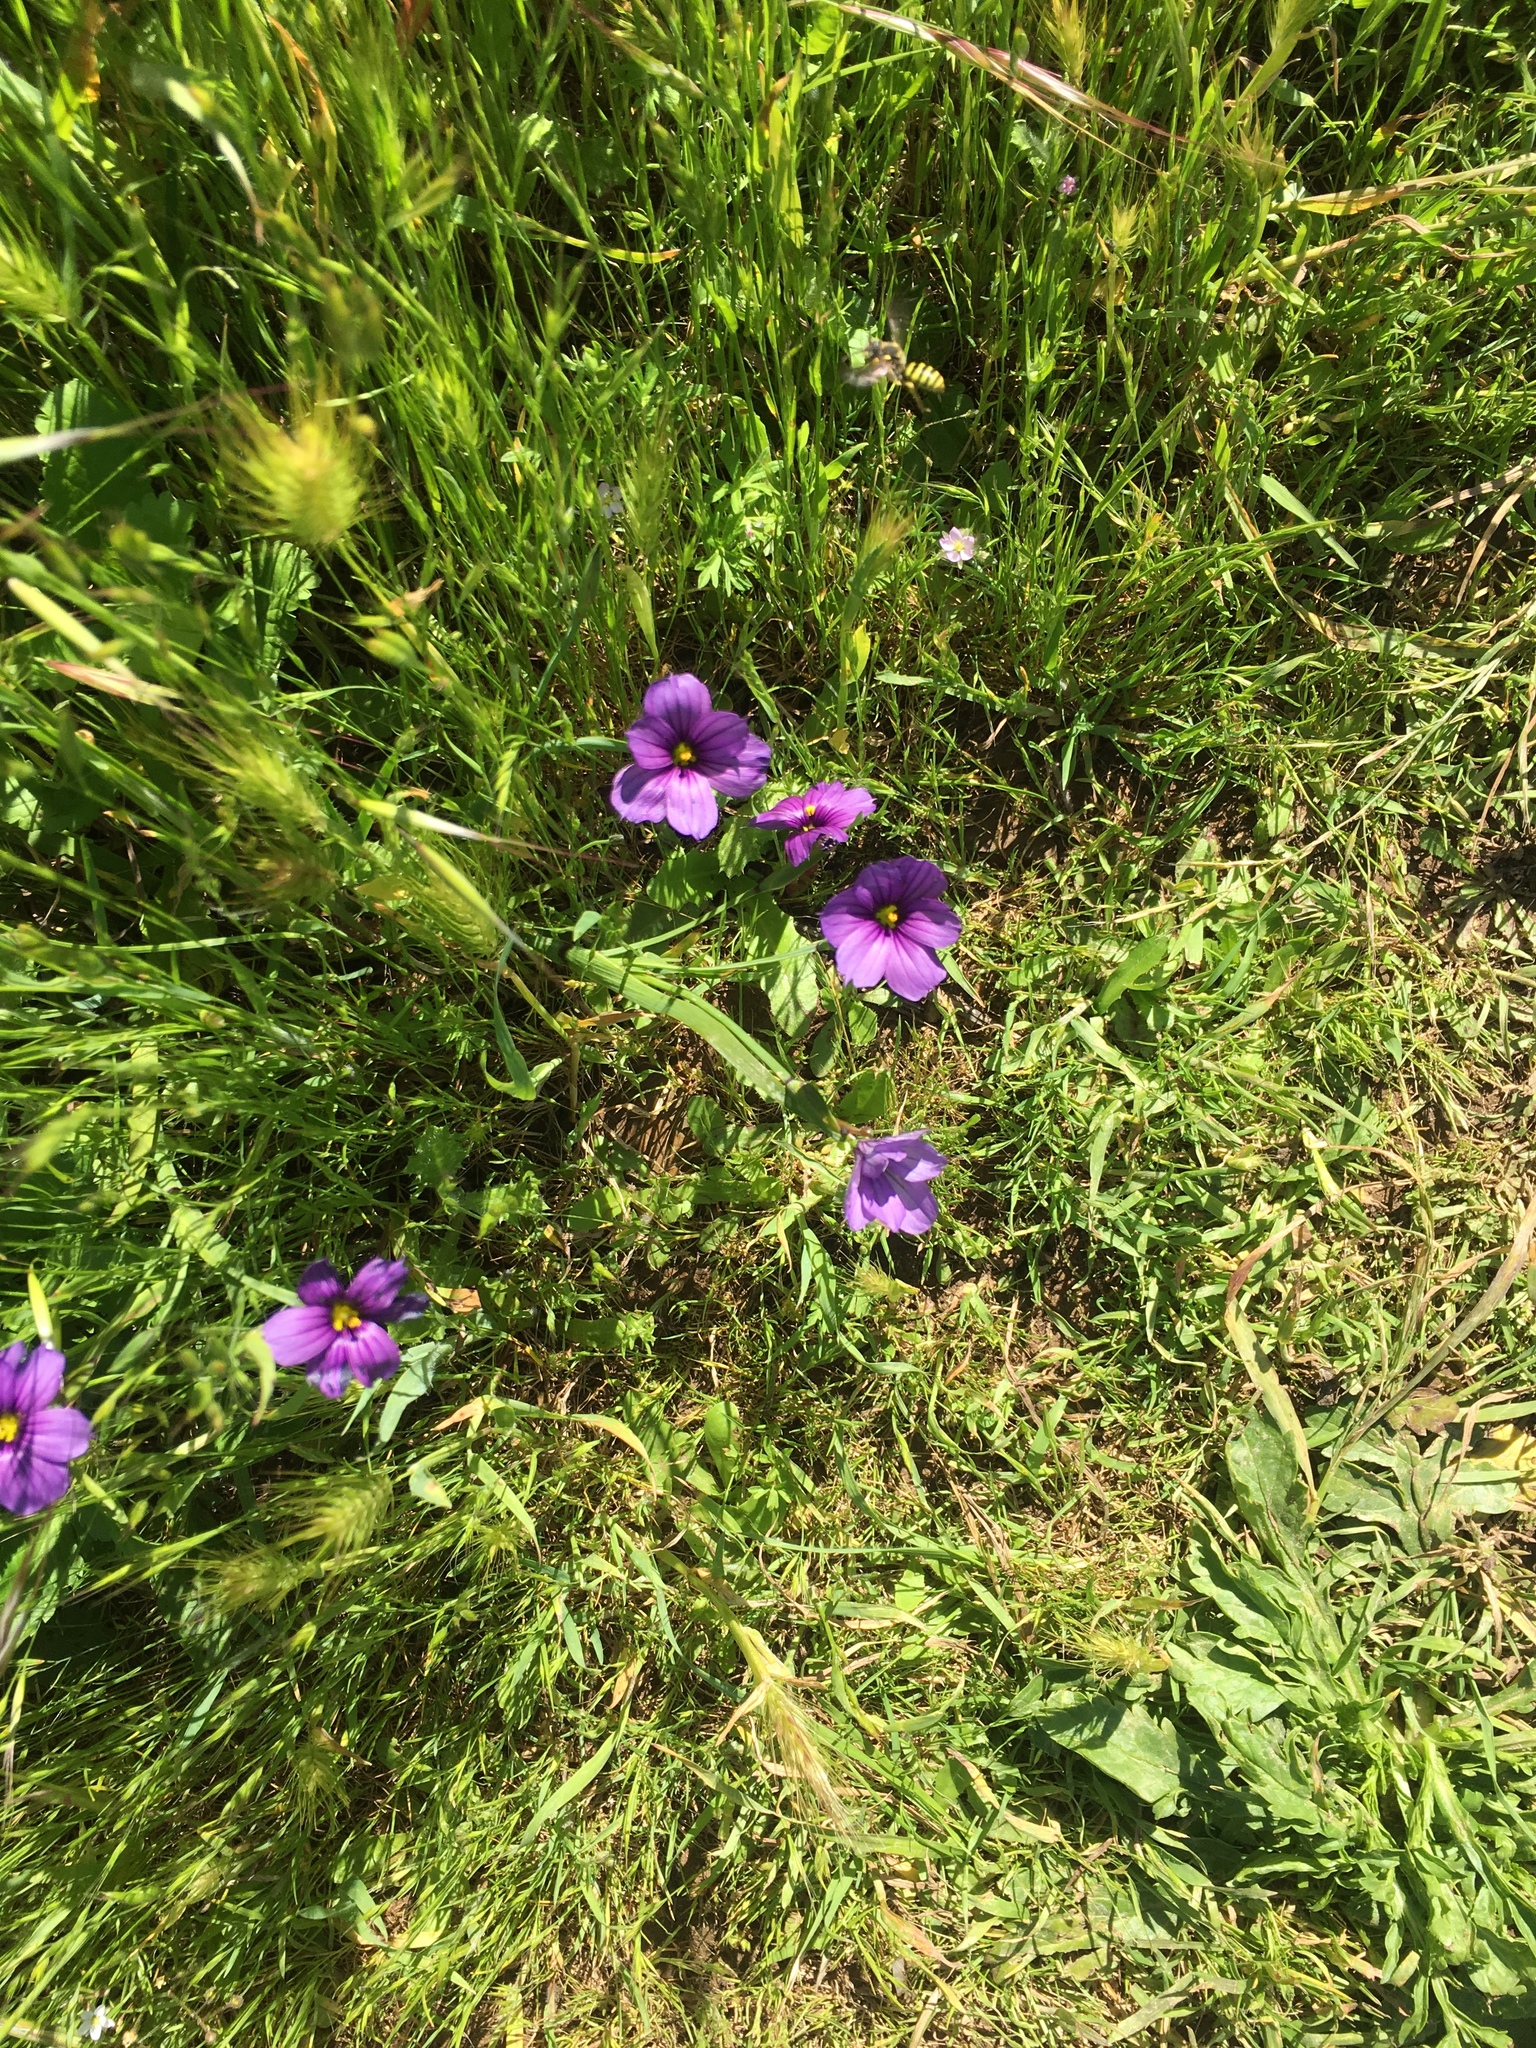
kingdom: Plantae
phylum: Tracheophyta
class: Liliopsida
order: Asparagales
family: Iridaceae
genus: Sisyrinchium
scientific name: Sisyrinchium bellum
